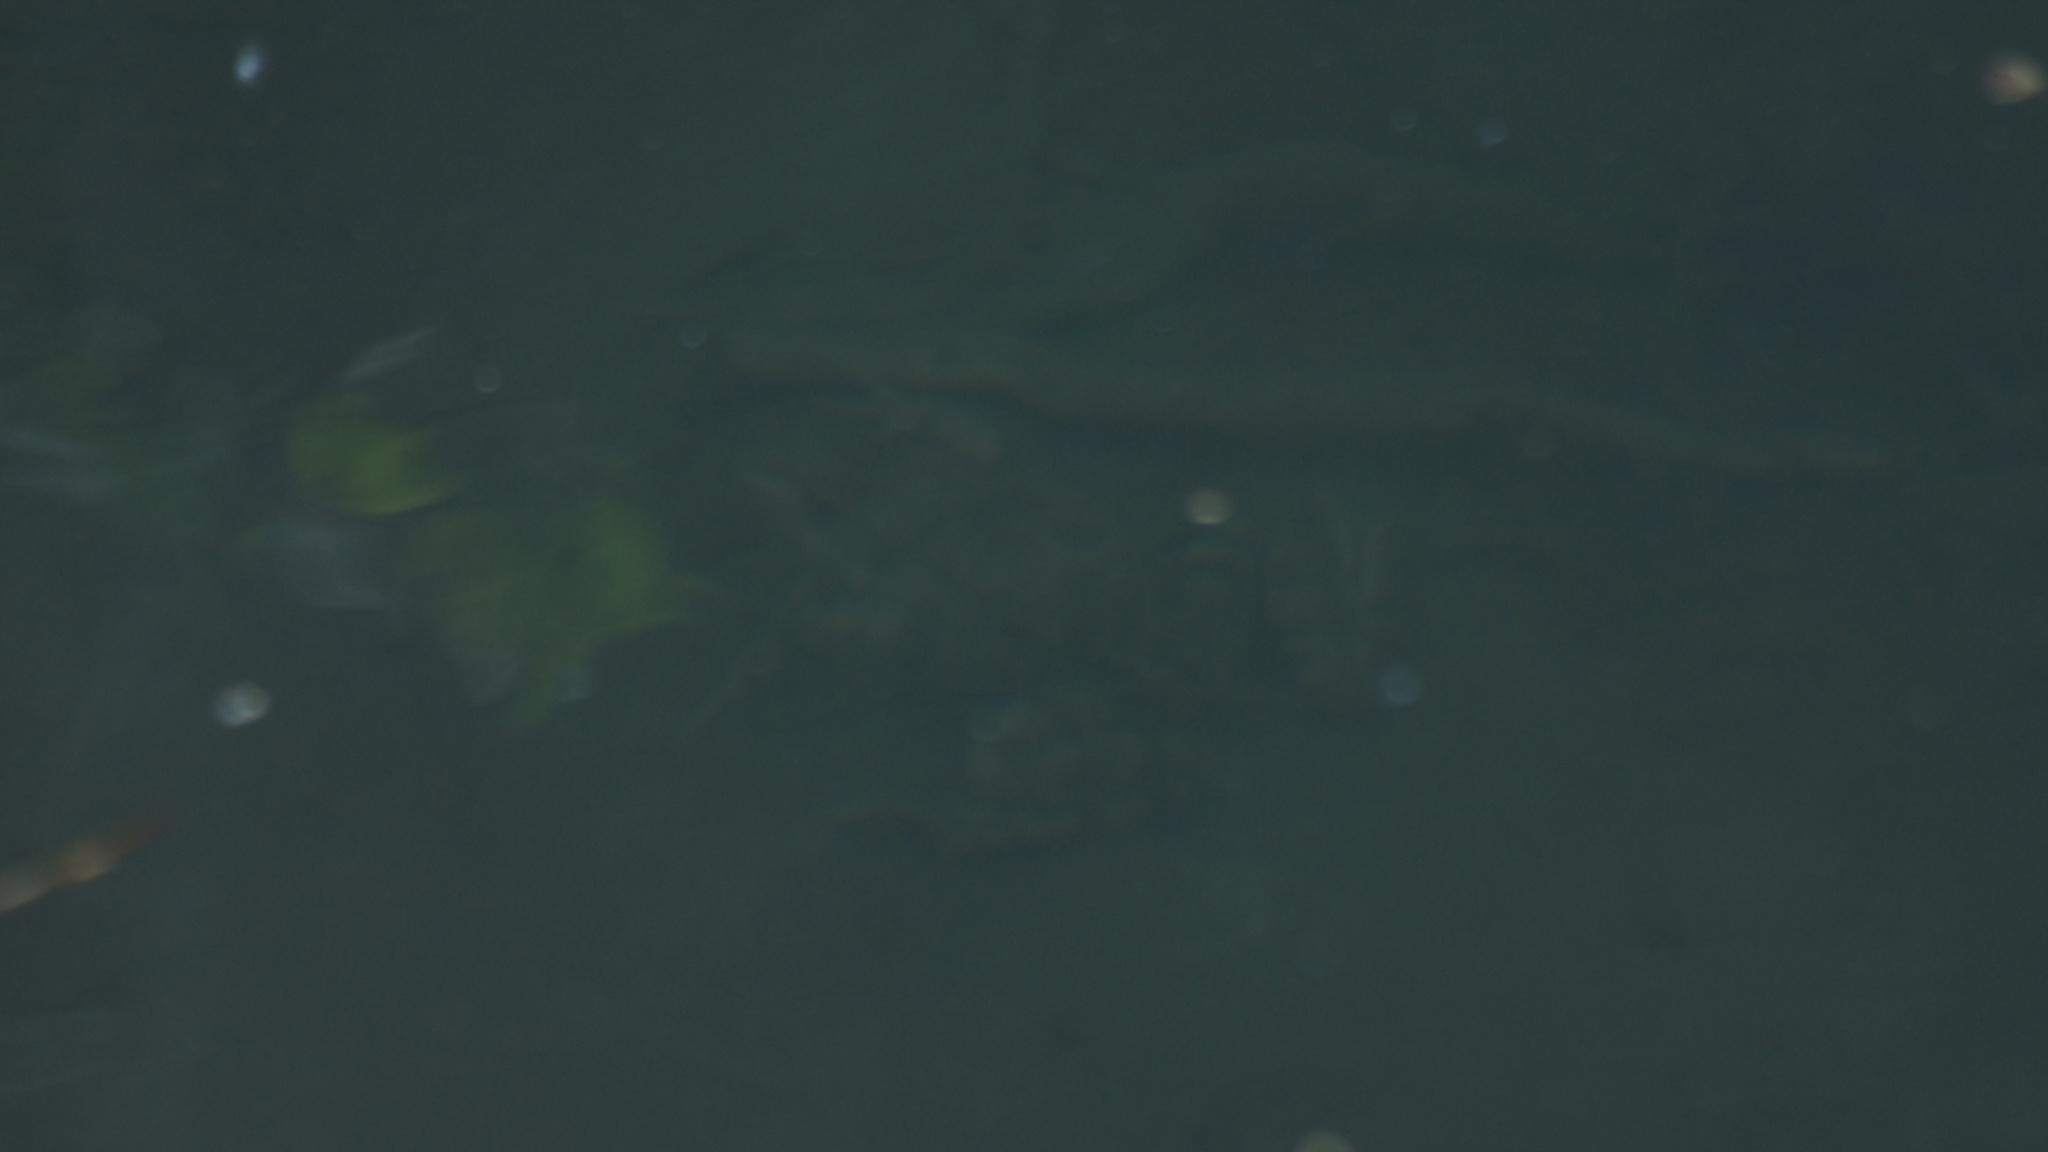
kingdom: Animalia
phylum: Chordata
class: Amphibia
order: Anura
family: Ranidae
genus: Pelophylax
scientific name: Pelophylax ridibundus
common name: Marsh frog
